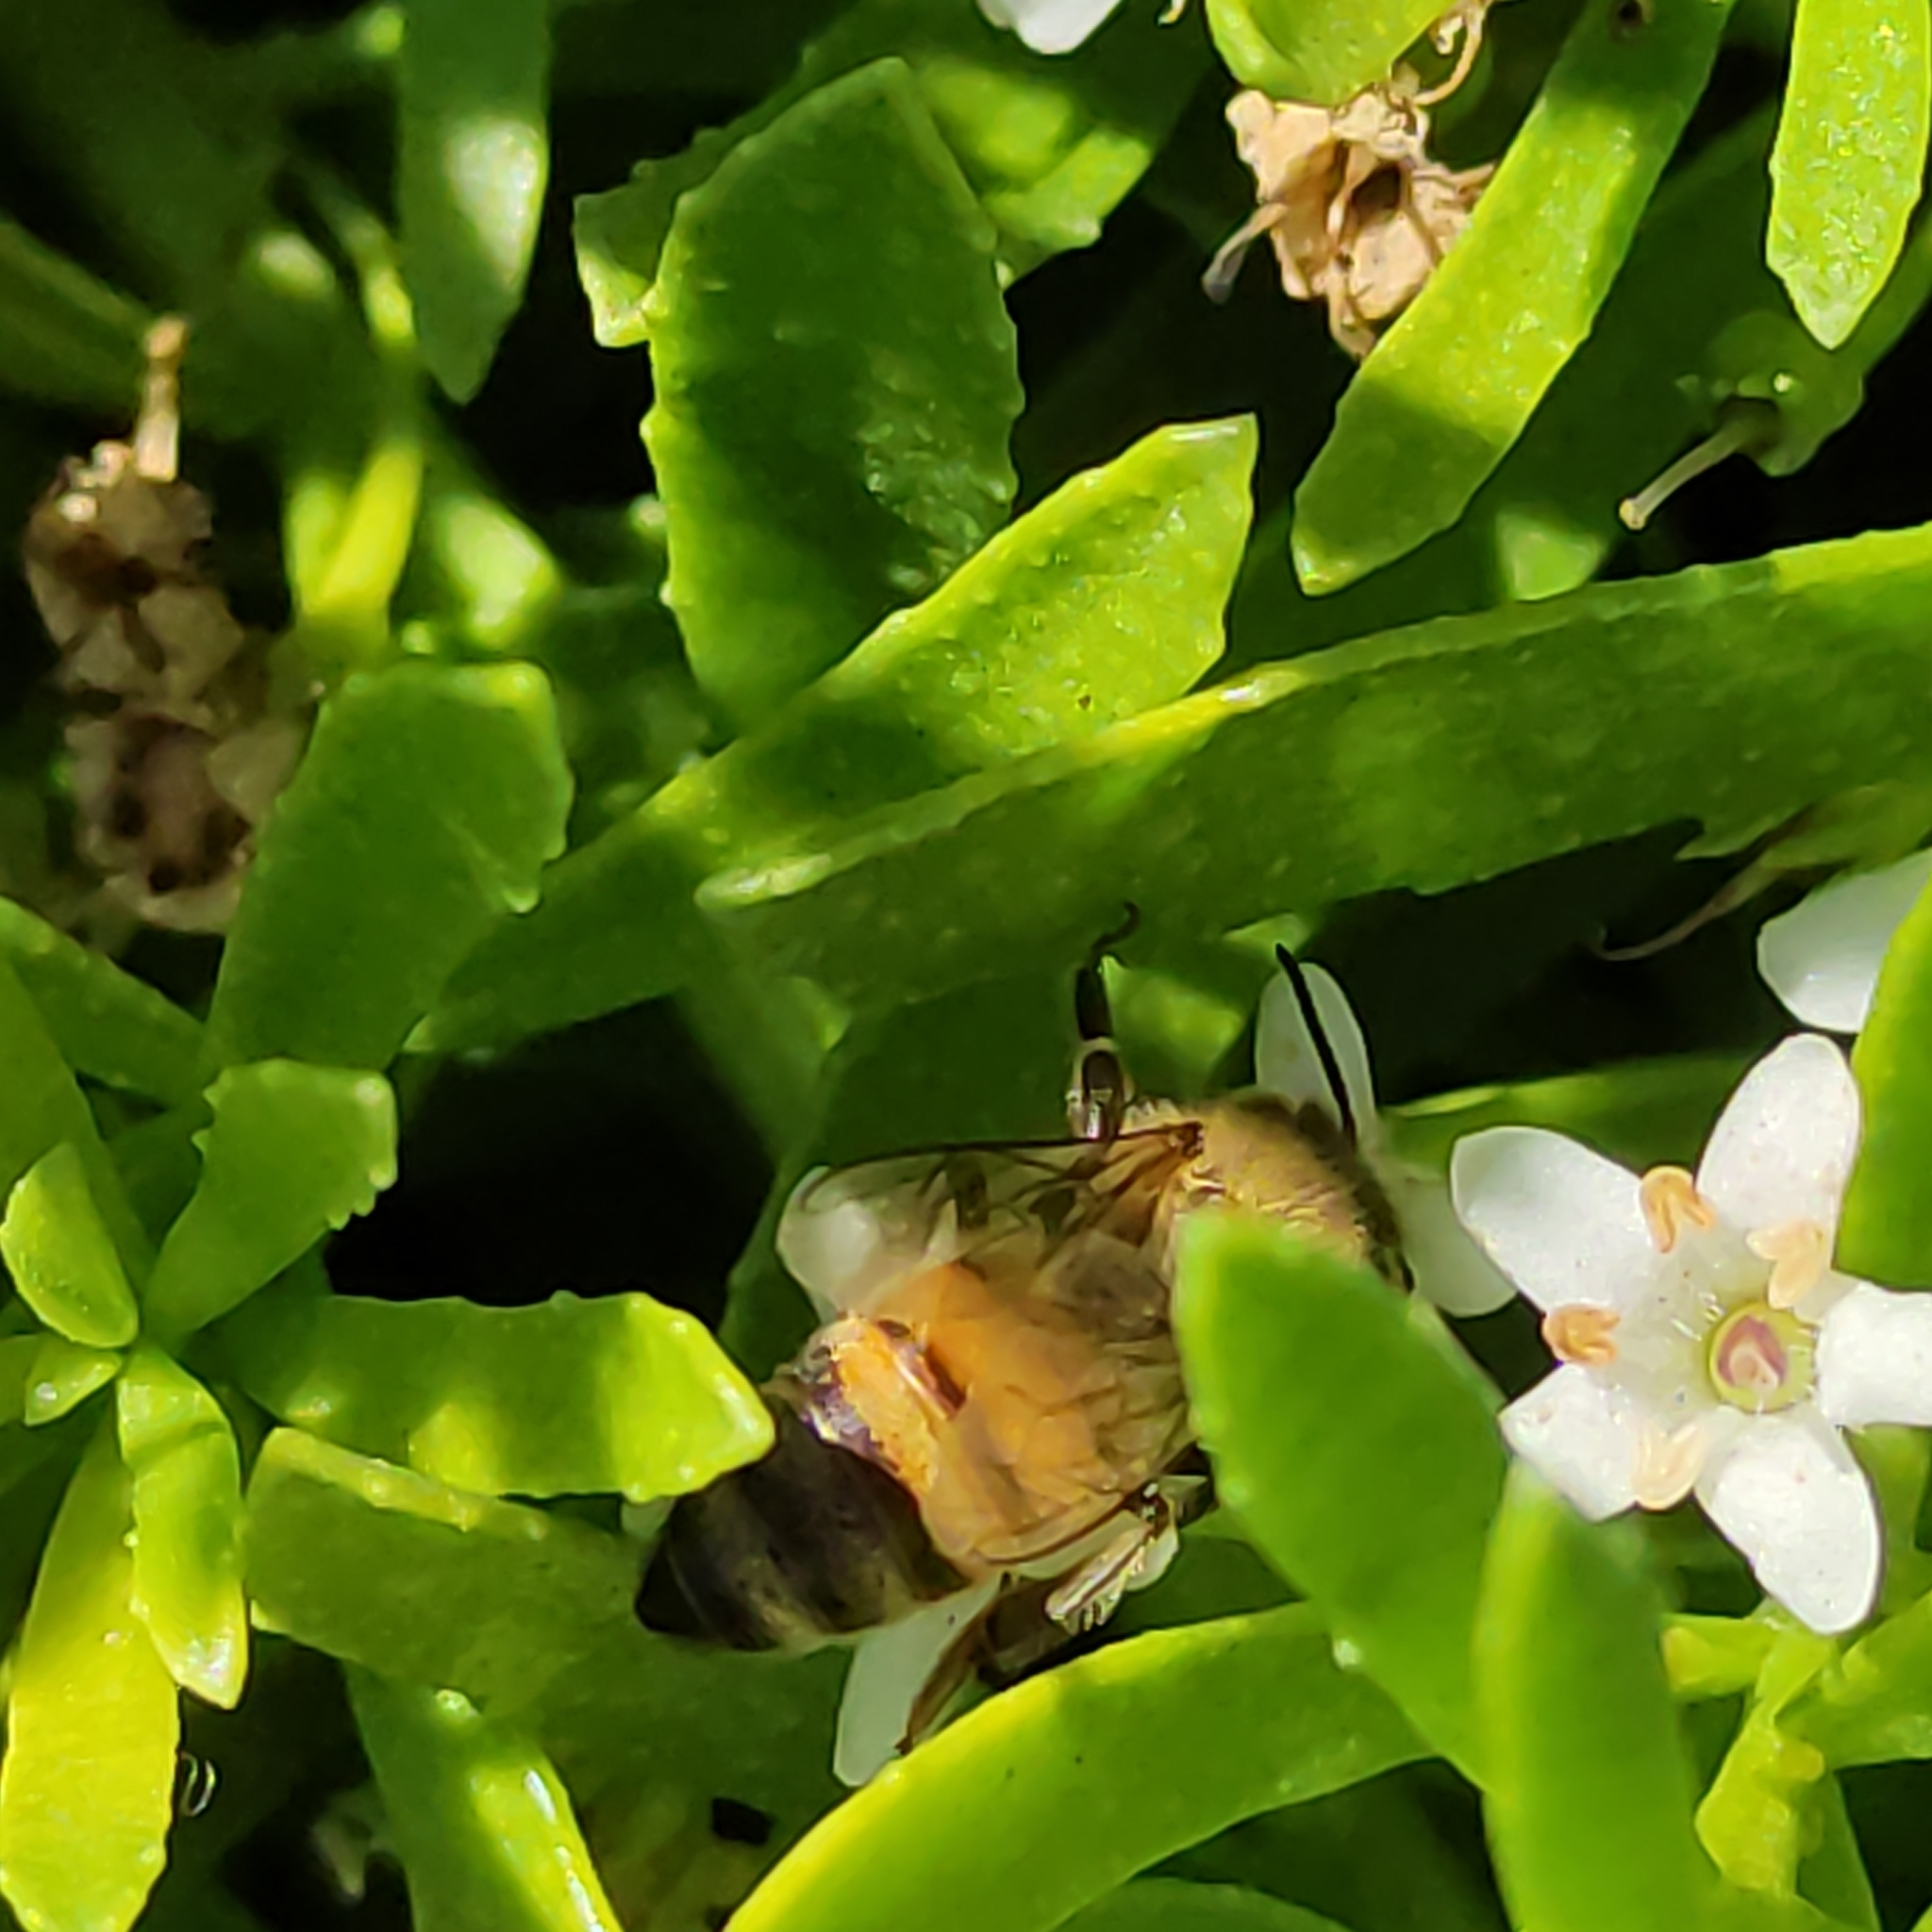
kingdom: Animalia
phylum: Arthropoda
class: Insecta
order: Hymenoptera
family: Apidae
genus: Apis
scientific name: Apis mellifera
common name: Honey bee
